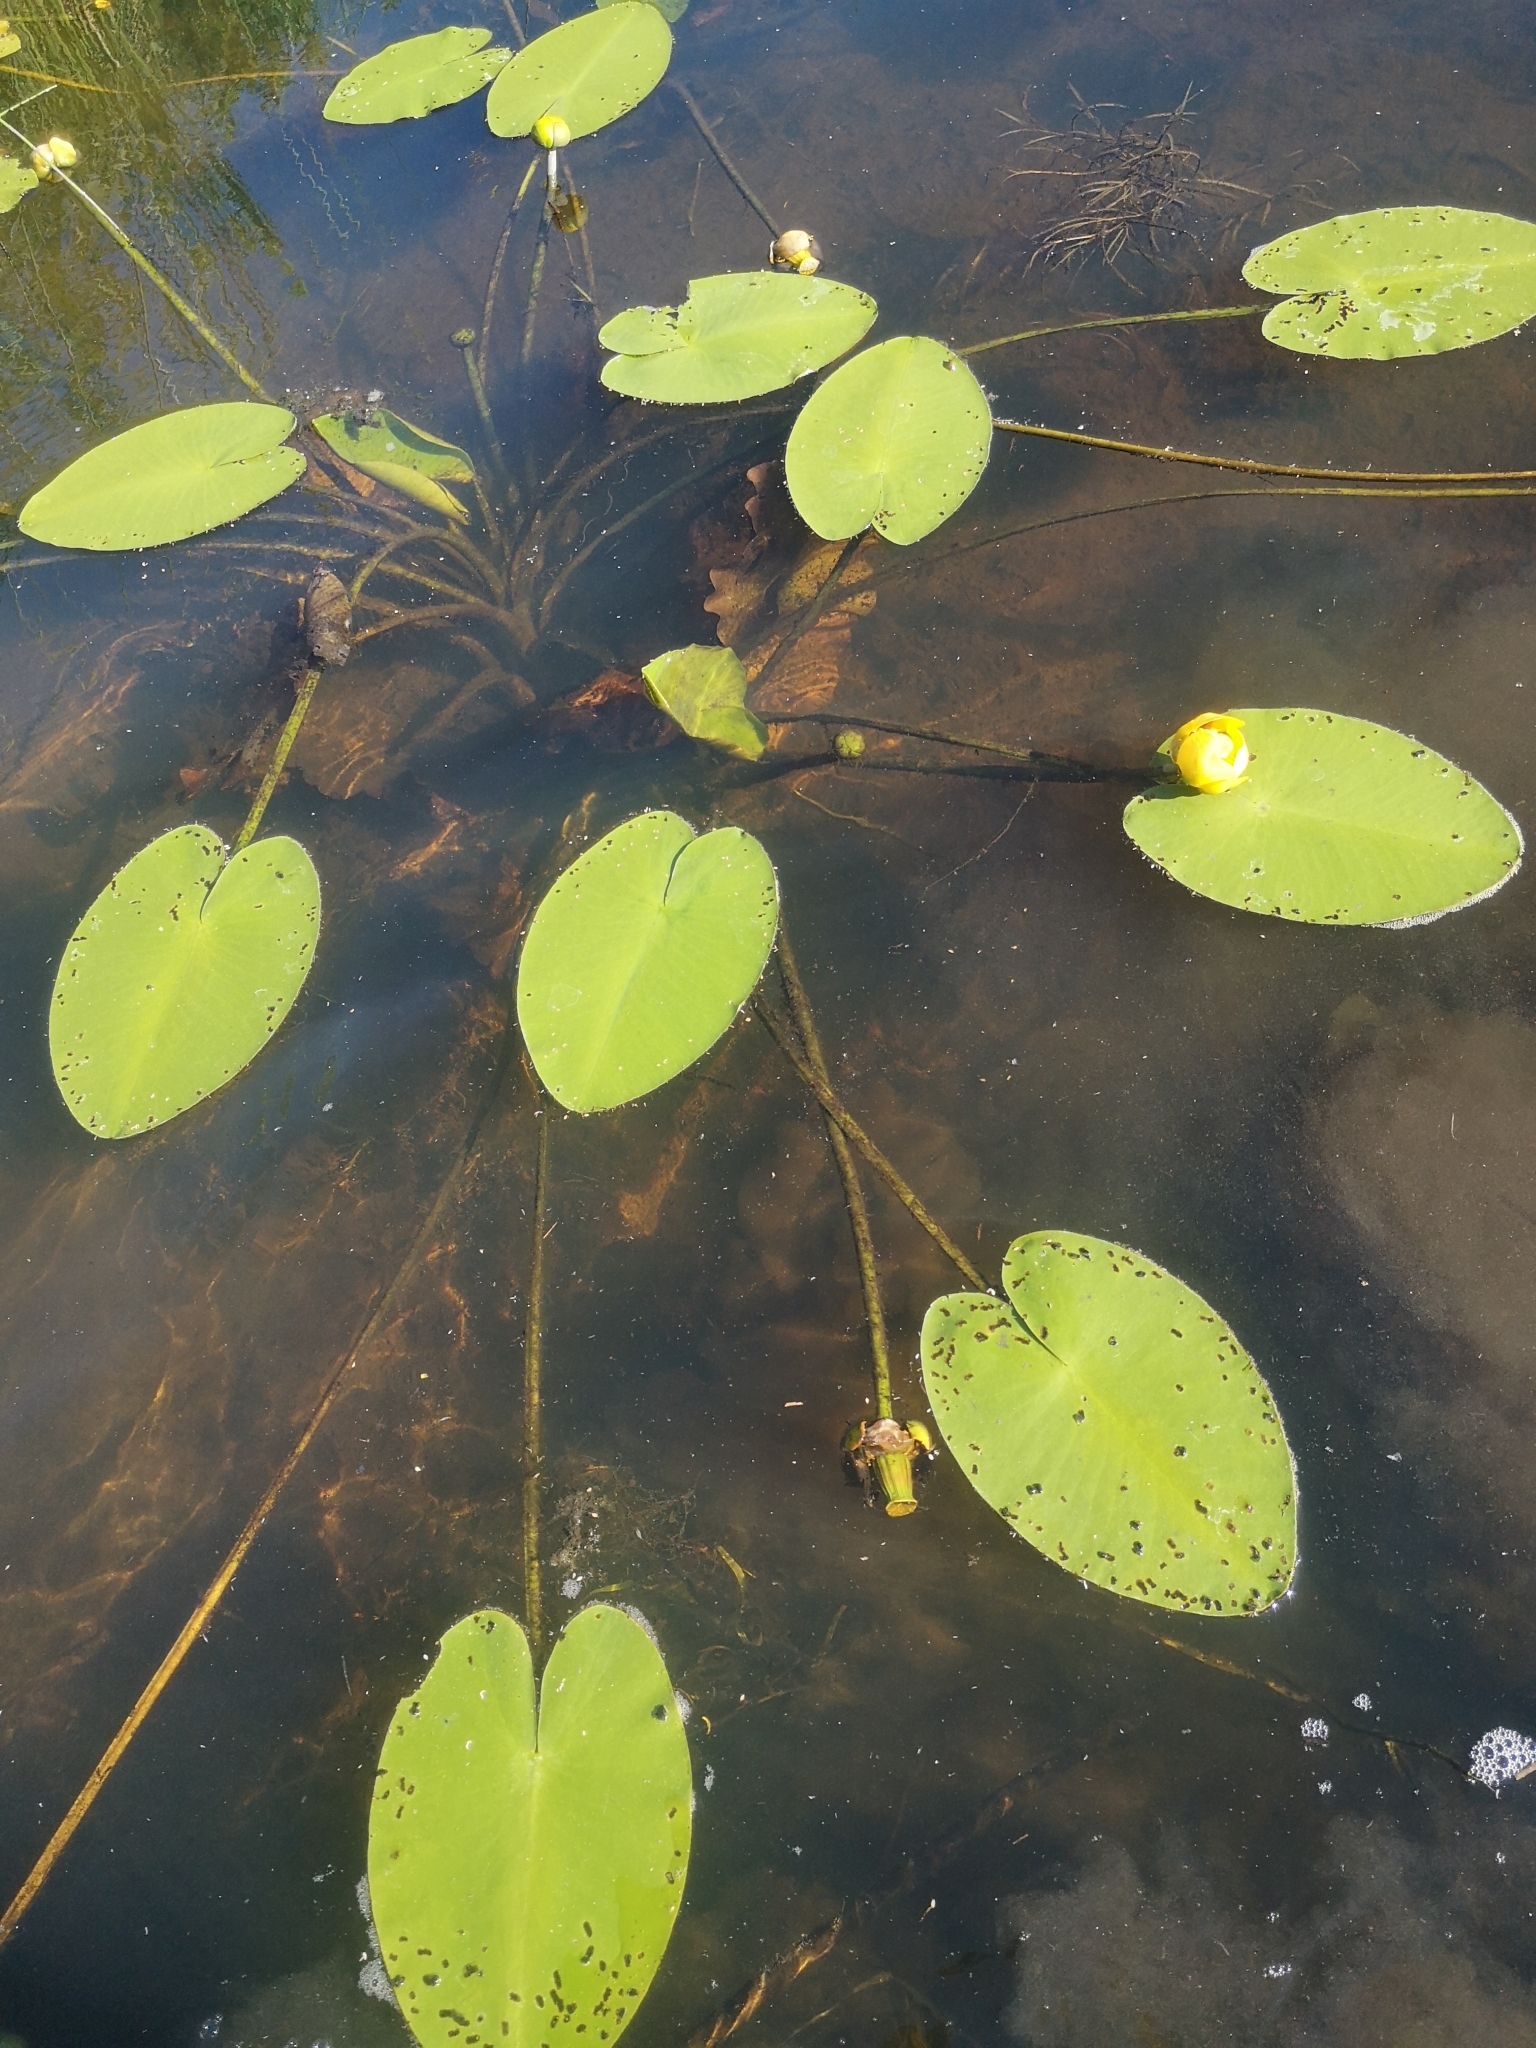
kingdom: Plantae
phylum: Tracheophyta
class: Magnoliopsida
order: Nymphaeales
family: Nymphaeaceae
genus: Nuphar
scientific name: Nuphar variegata
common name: Beaver-root
